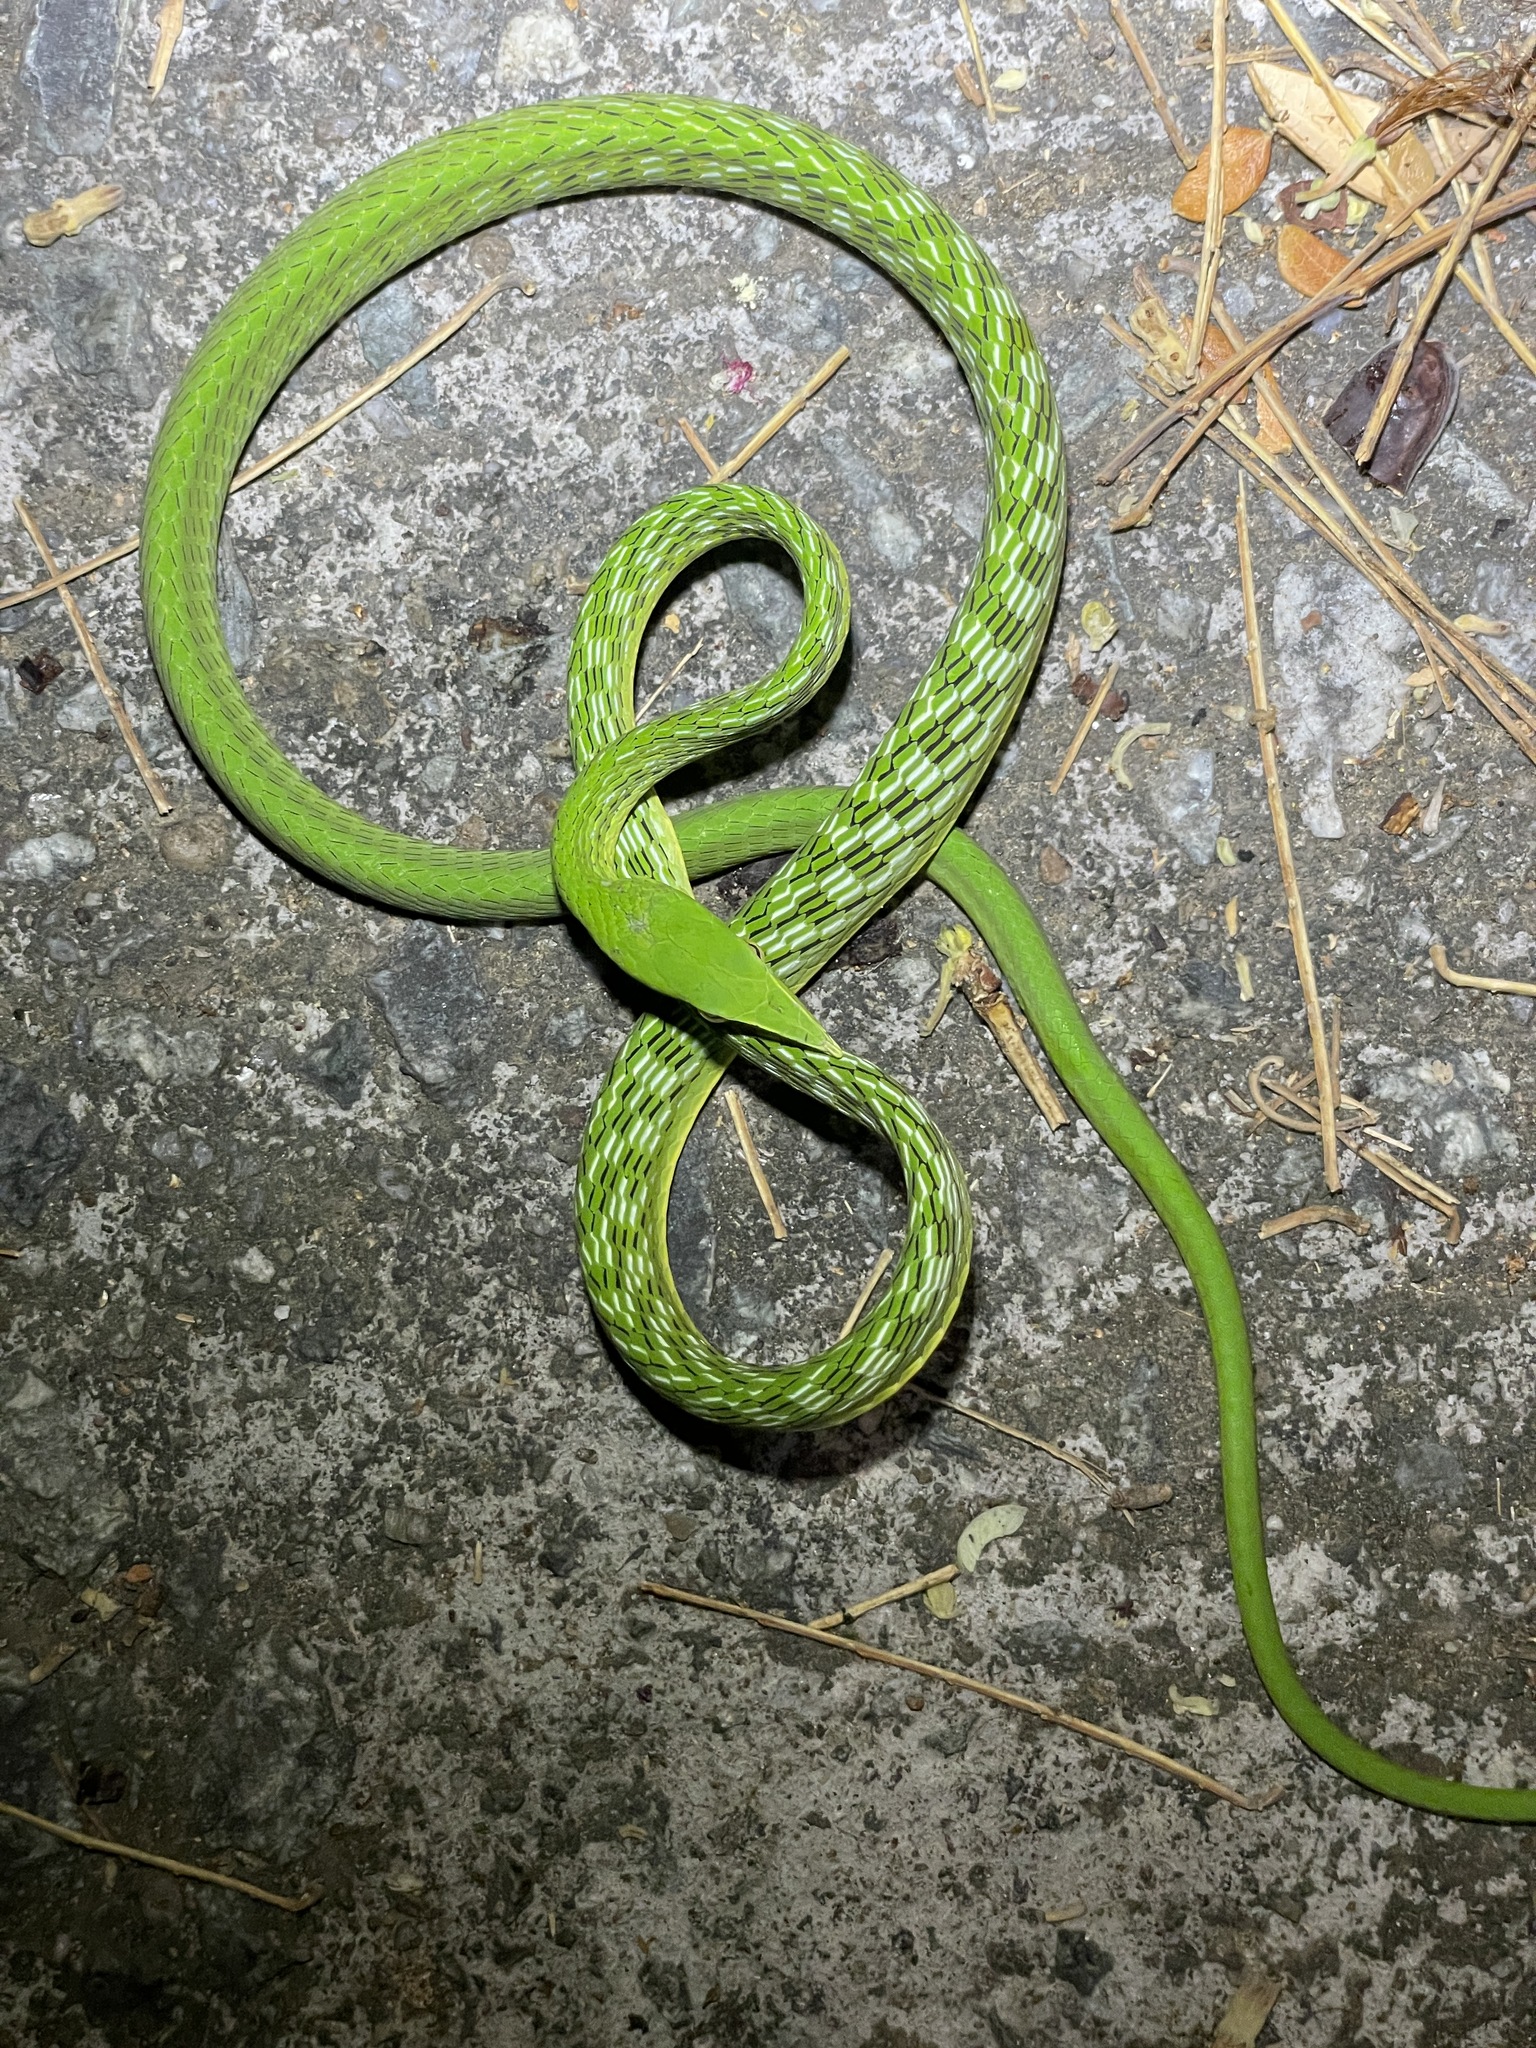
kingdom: Animalia
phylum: Chordata
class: Squamata
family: Colubridae
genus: Ahaetulla
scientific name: Ahaetulla
